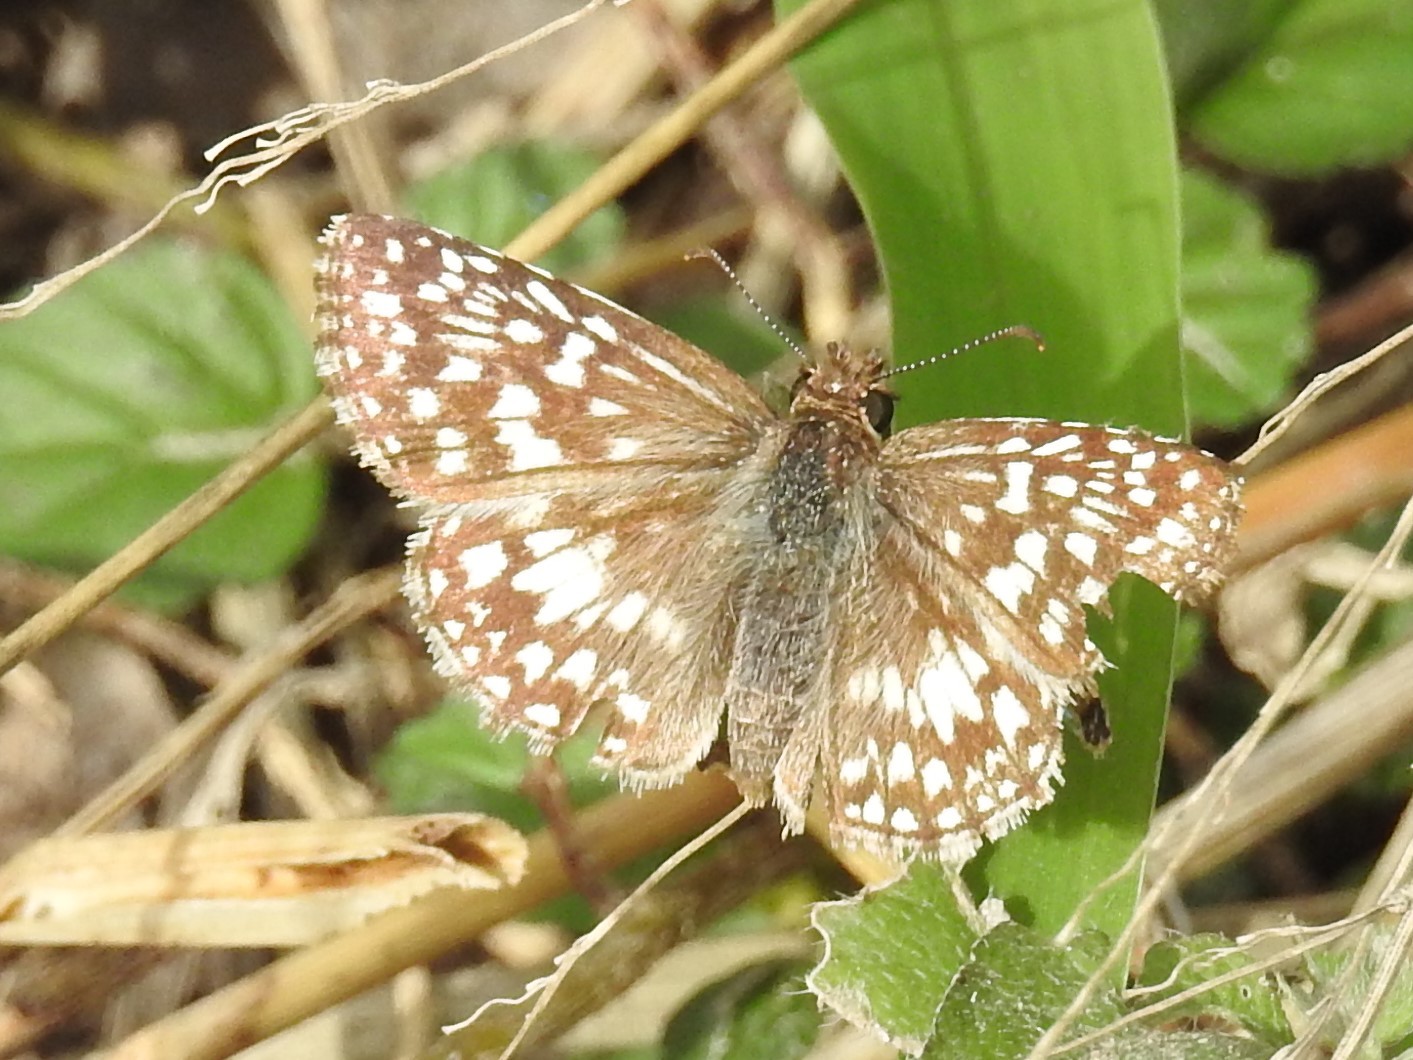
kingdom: Animalia
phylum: Arthropoda
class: Insecta
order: Lepidoptera
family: Hesperiidae
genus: Pyrgus
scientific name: Pyrgus oileus
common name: Tropical checkered-skipper
